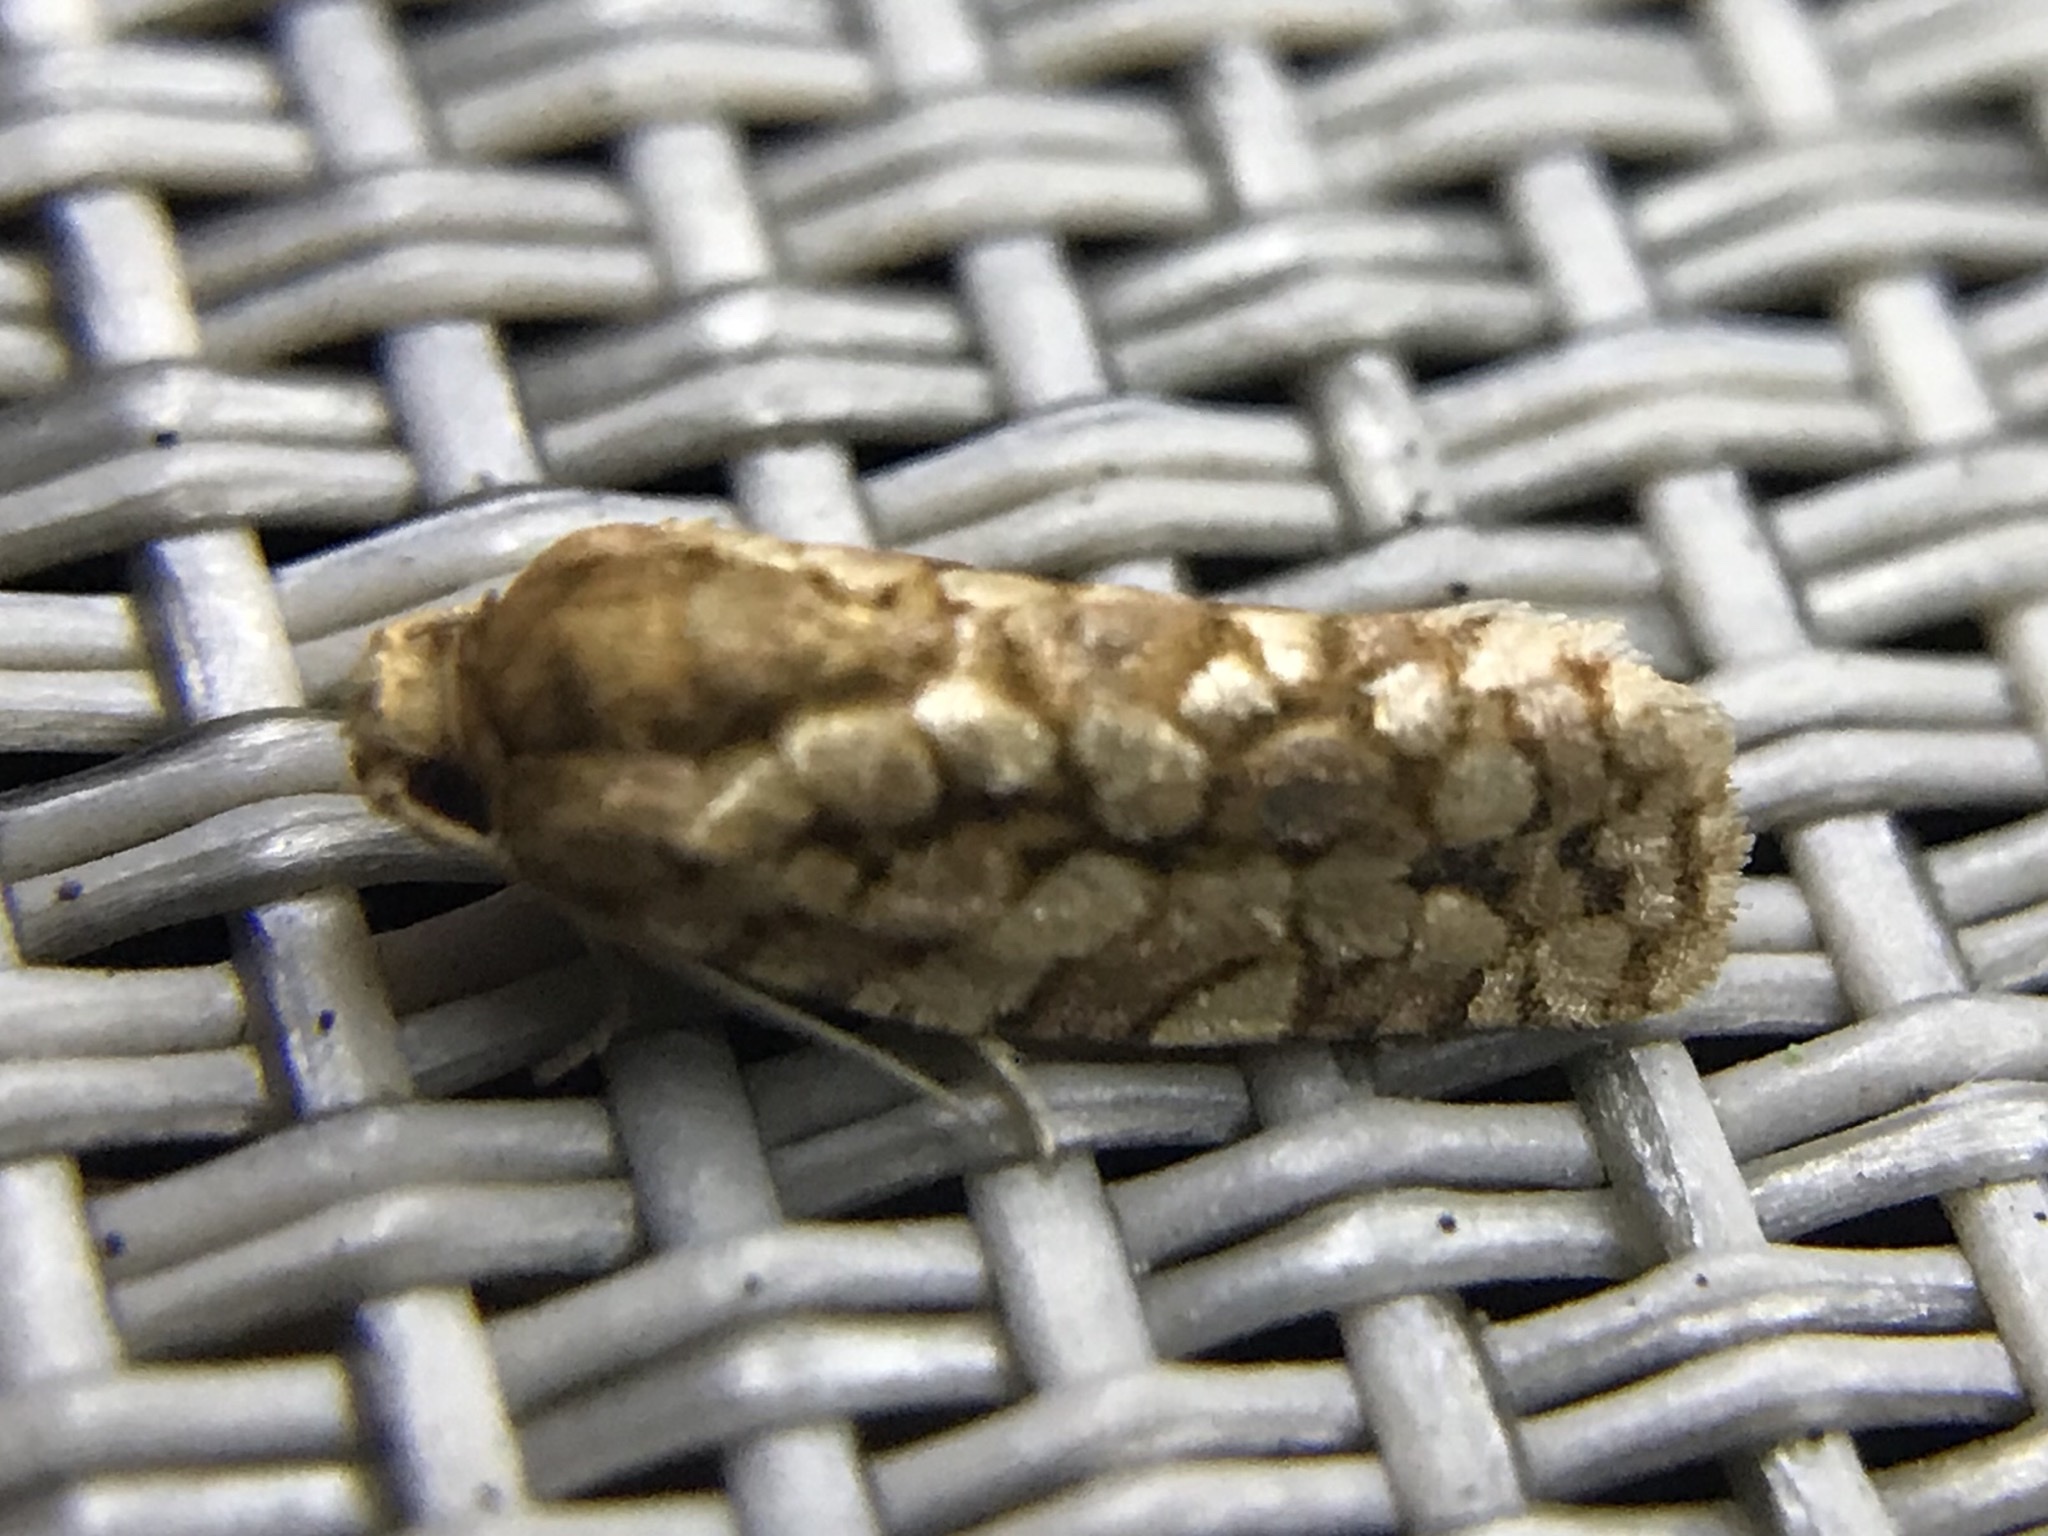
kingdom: Animalia
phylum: Arthropoda
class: Insecta
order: Lepidoptera
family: Tortricidae
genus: Choristoneura
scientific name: Choristoneura houstonana
